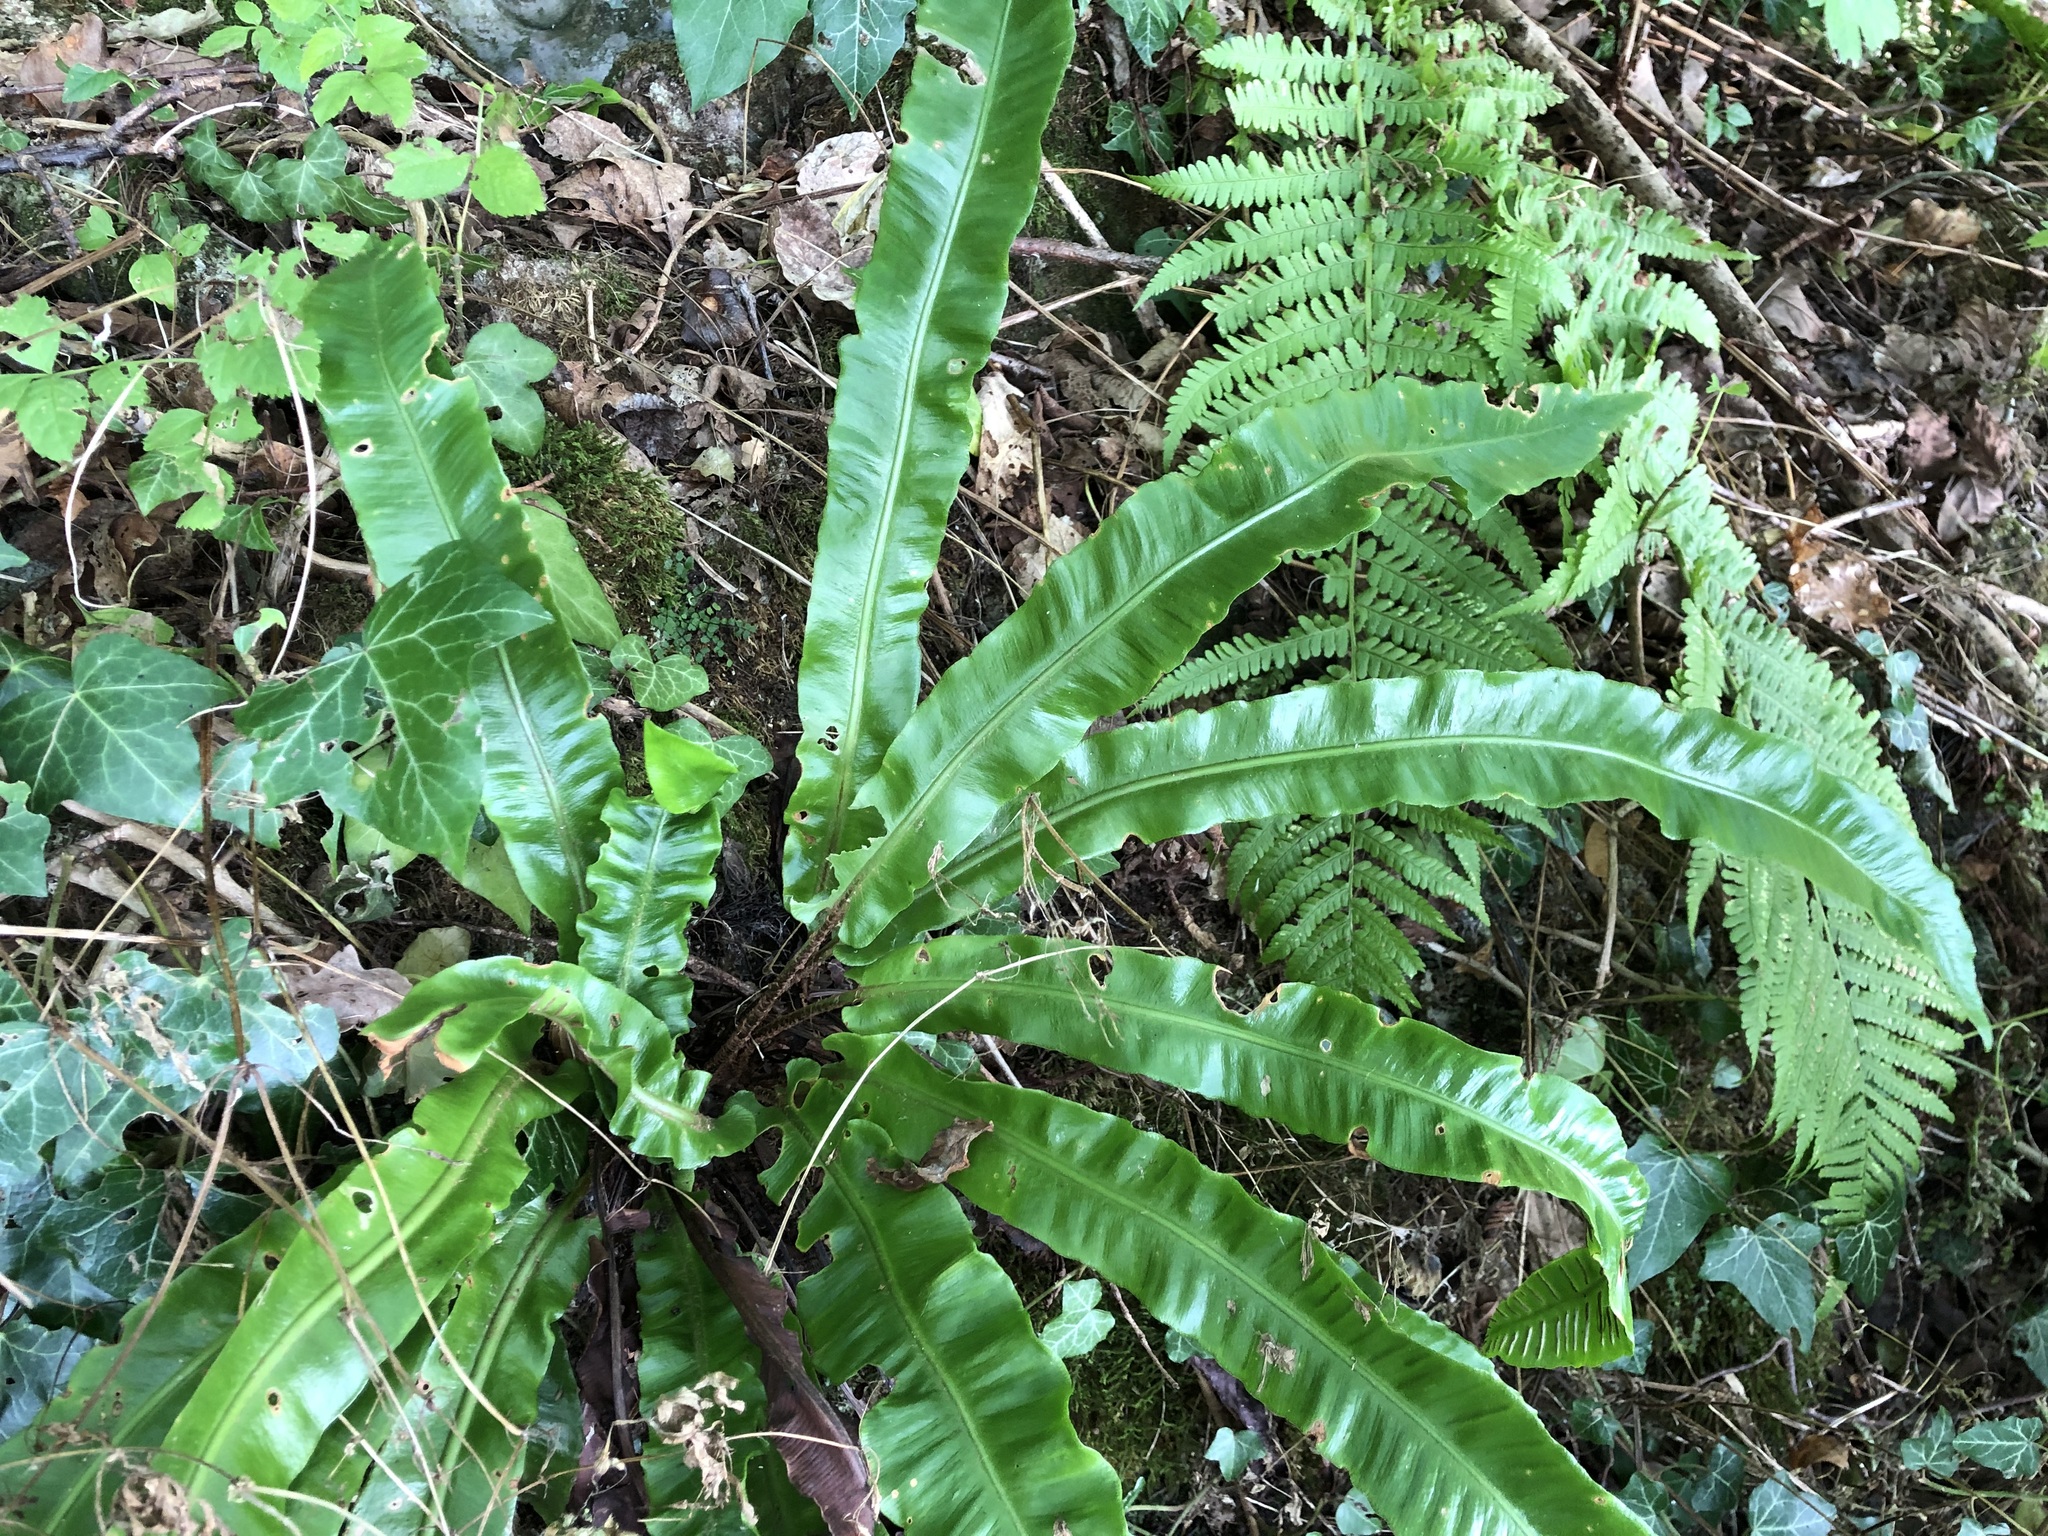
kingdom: Plantae
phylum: Tracheophyta
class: Polypodiopsida
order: Polypodiales
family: Aspleniaceae
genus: Asplenium
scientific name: Asplenium scolopendrium
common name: Hart's-tongue fern
